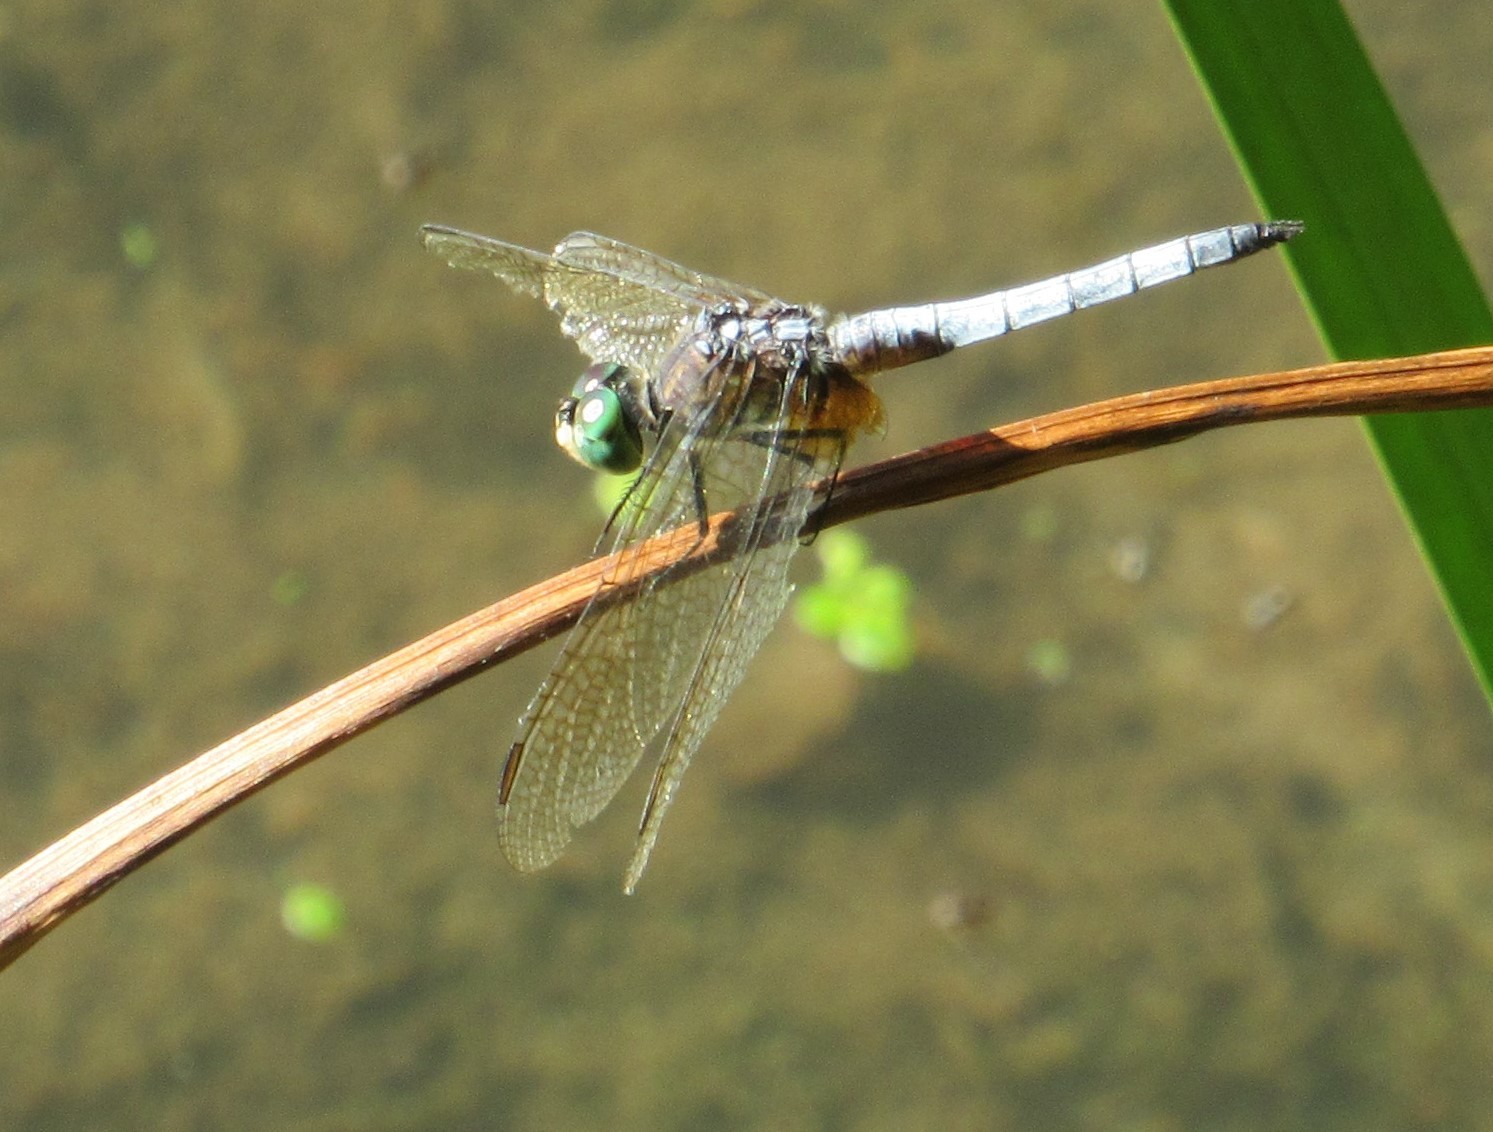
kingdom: Animalia
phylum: Arthropoda
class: Insecta
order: Odonata
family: Libellulidae
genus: Pachydiplax
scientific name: Pachydiplax longipennis
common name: Blue dasher
